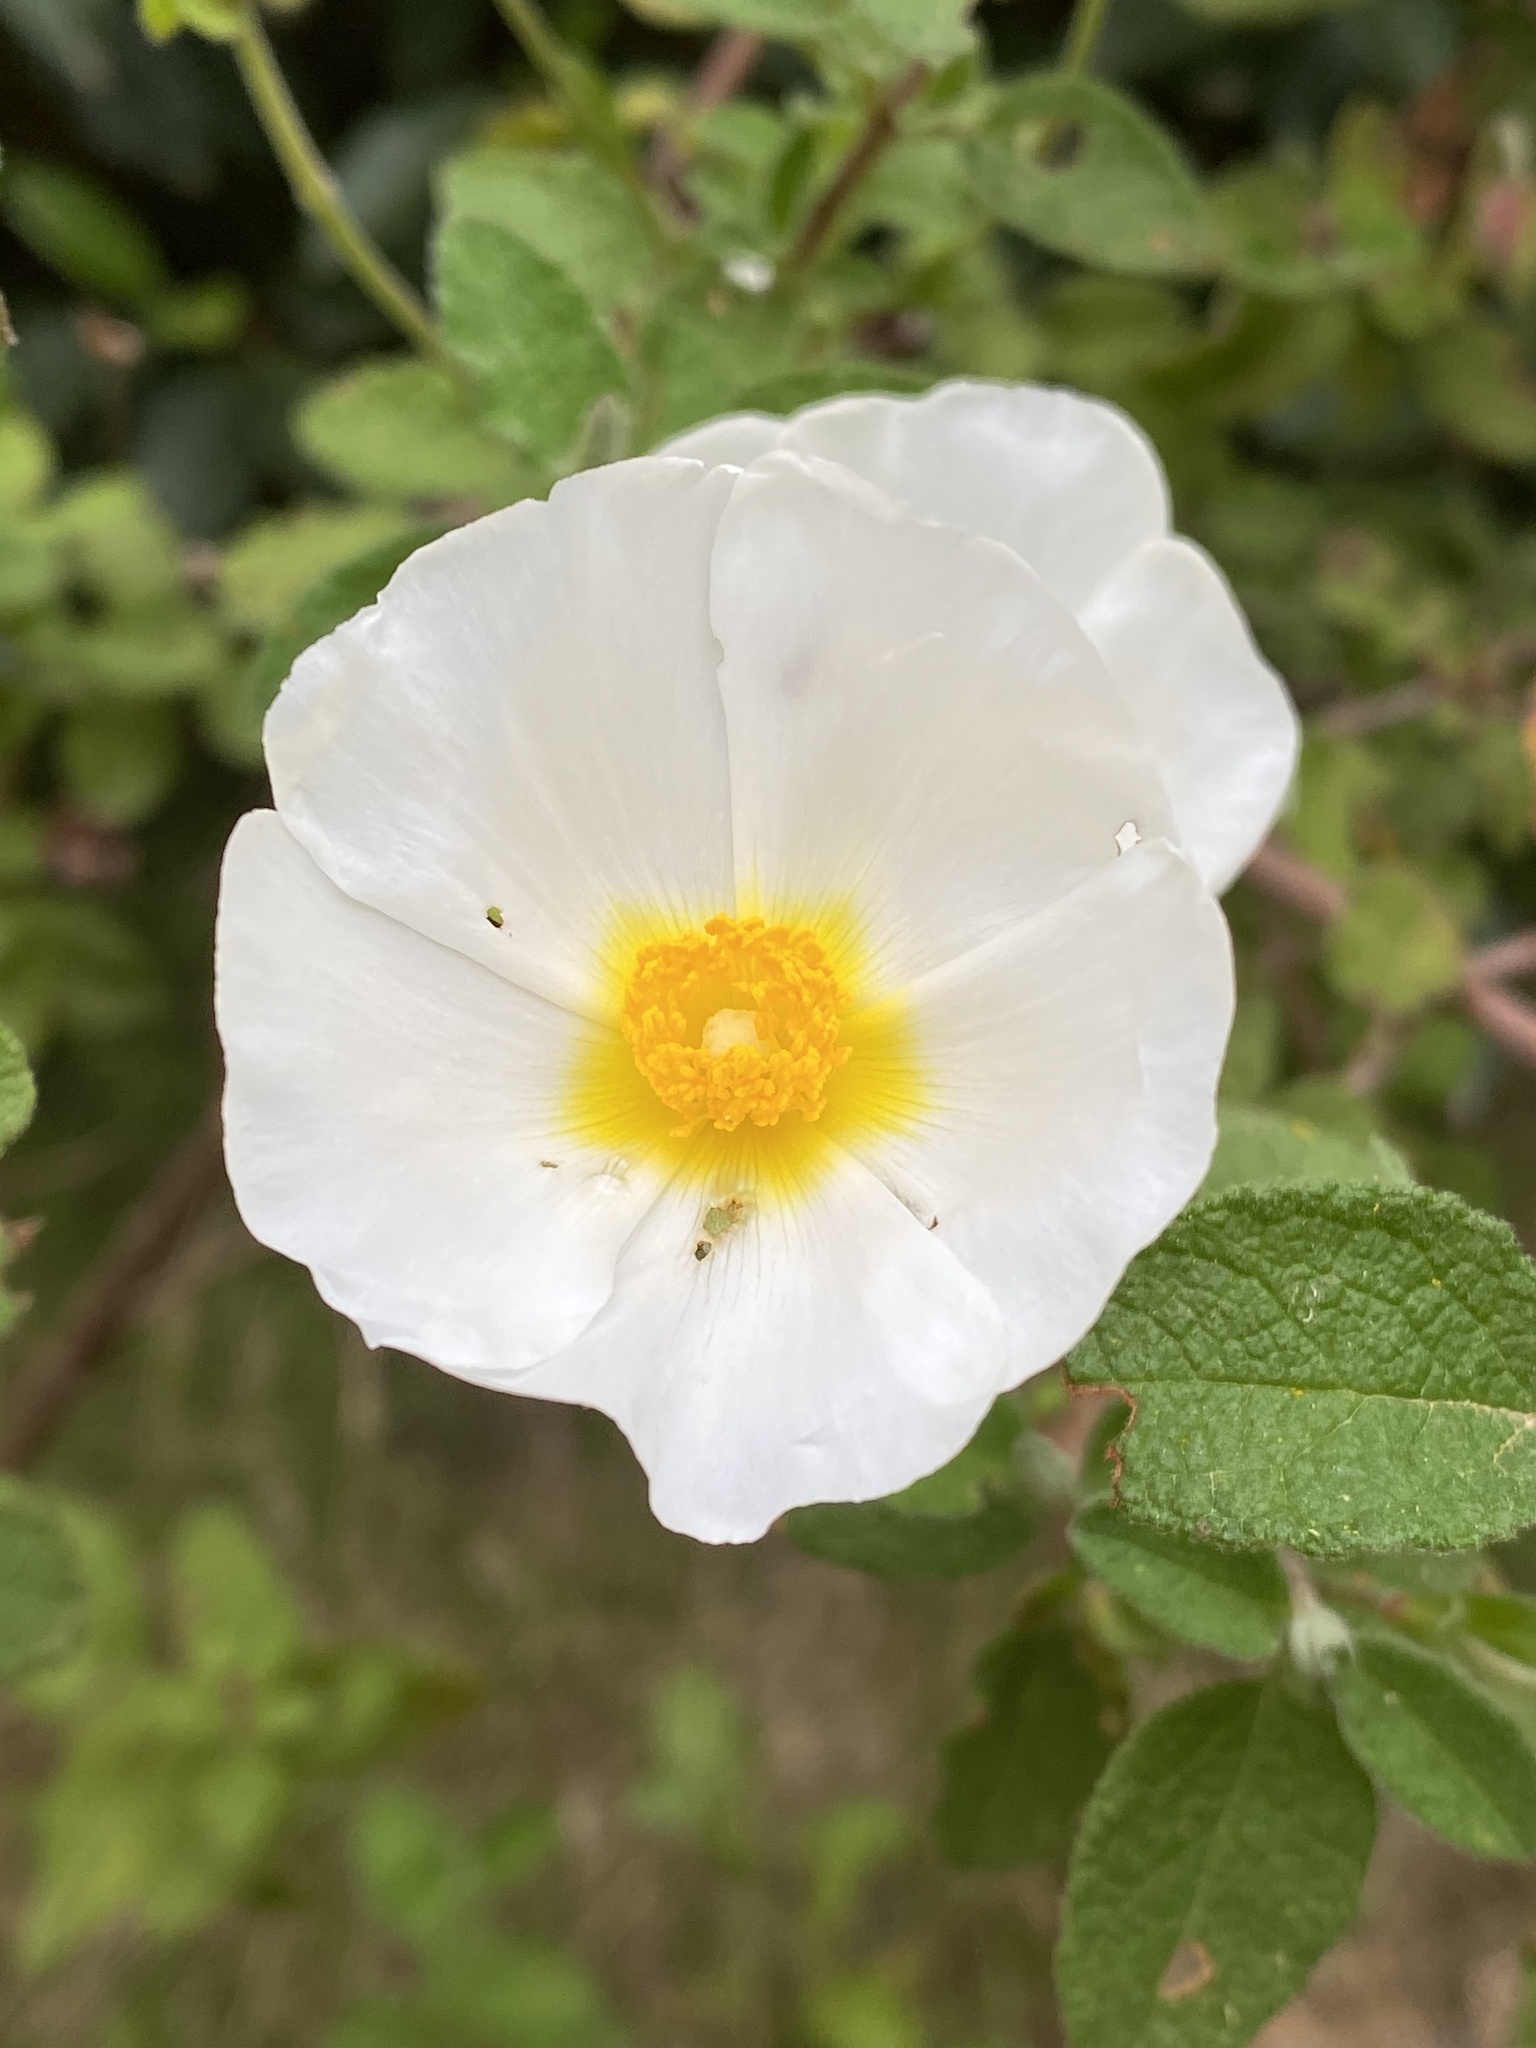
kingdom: Plantae
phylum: Tracheophyta
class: Magnoliopsida
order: Malvales
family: Cistaceae
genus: Cistus
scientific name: Cistus salviifolius
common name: Salvia cistus
